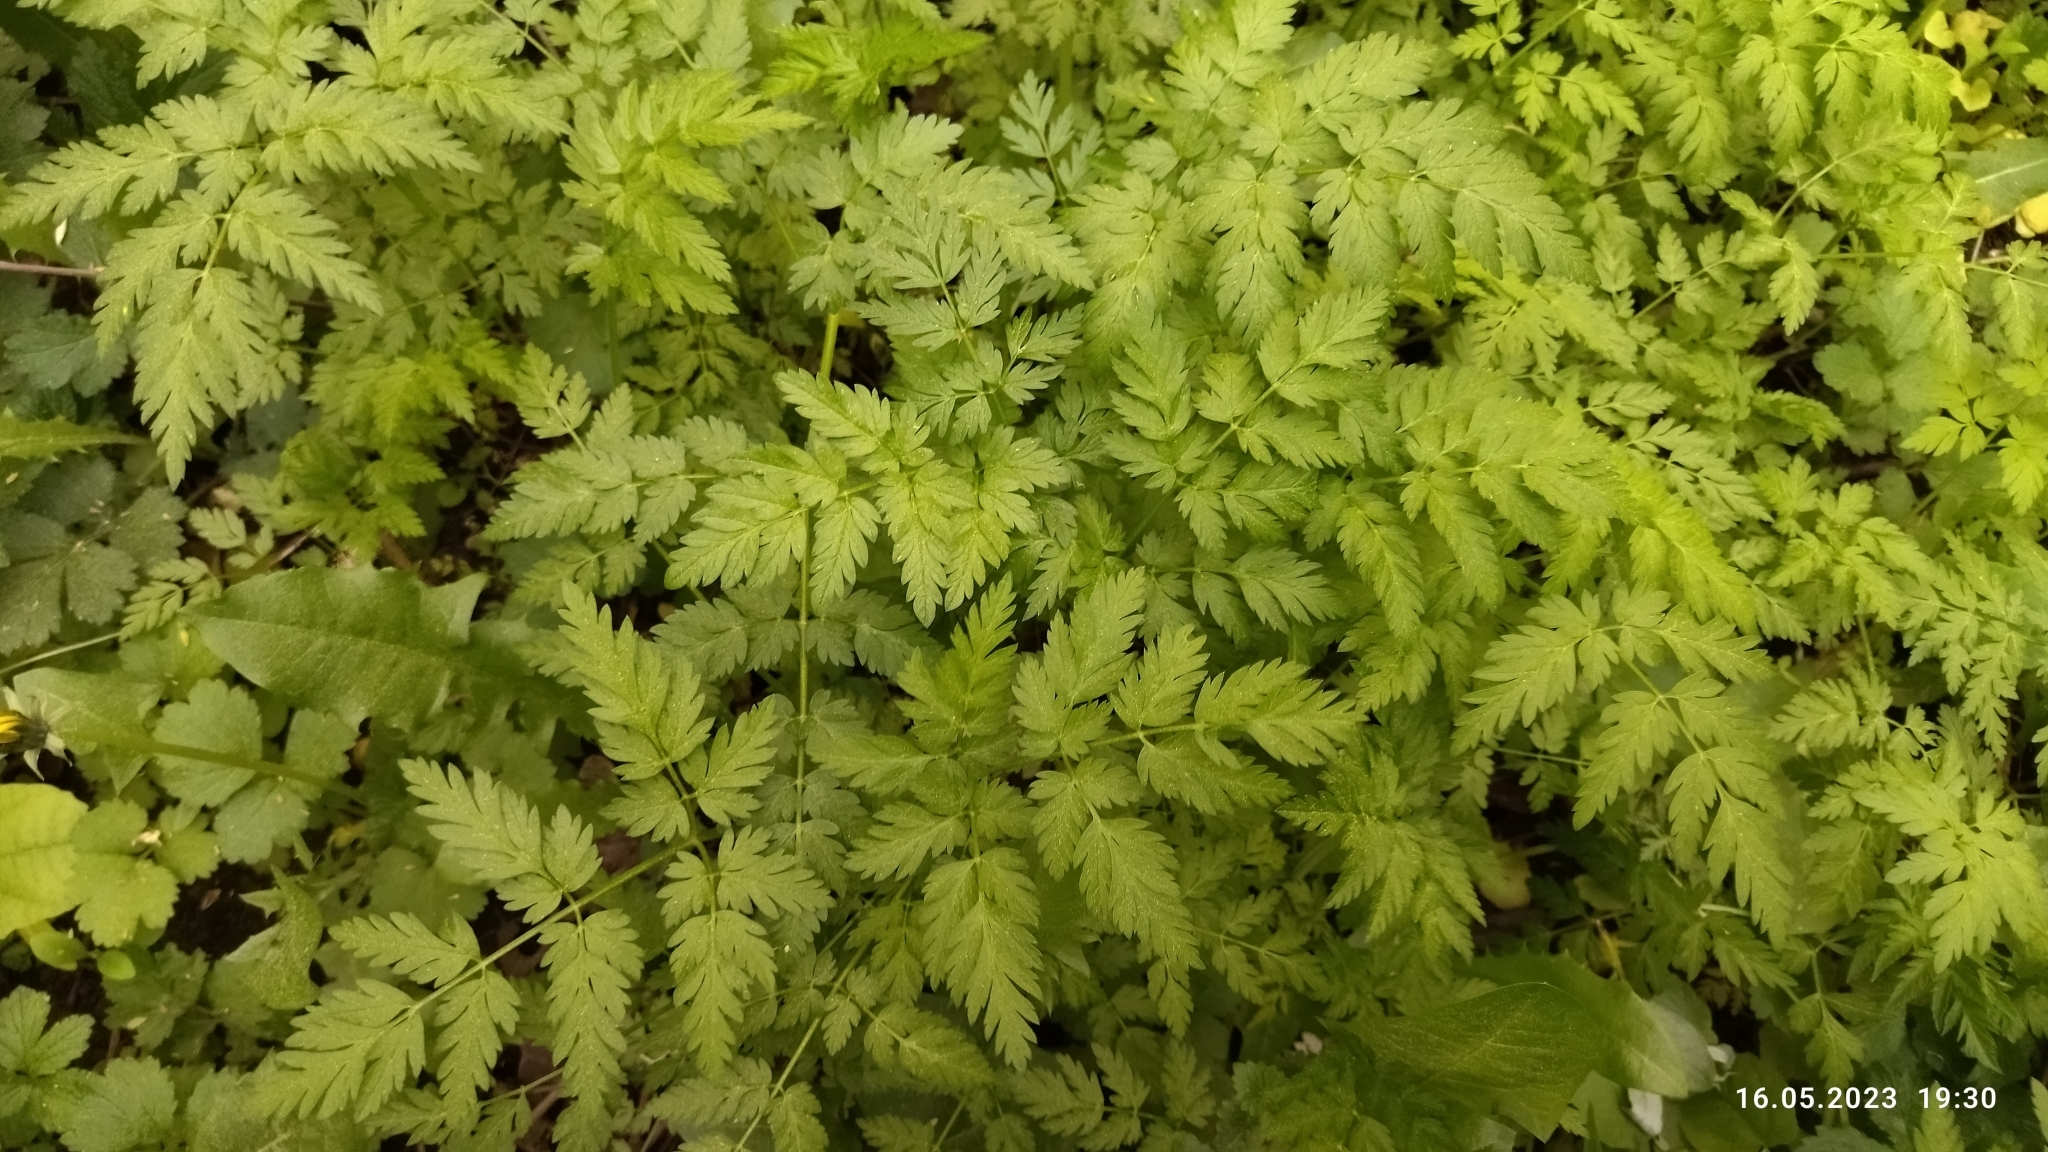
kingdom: Plantae
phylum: Tracheophyta
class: Magnoliopsida
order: Apiales
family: Apiaceae
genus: Anthriscus
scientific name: Anthriscus sylvestris
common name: Cow parsley
